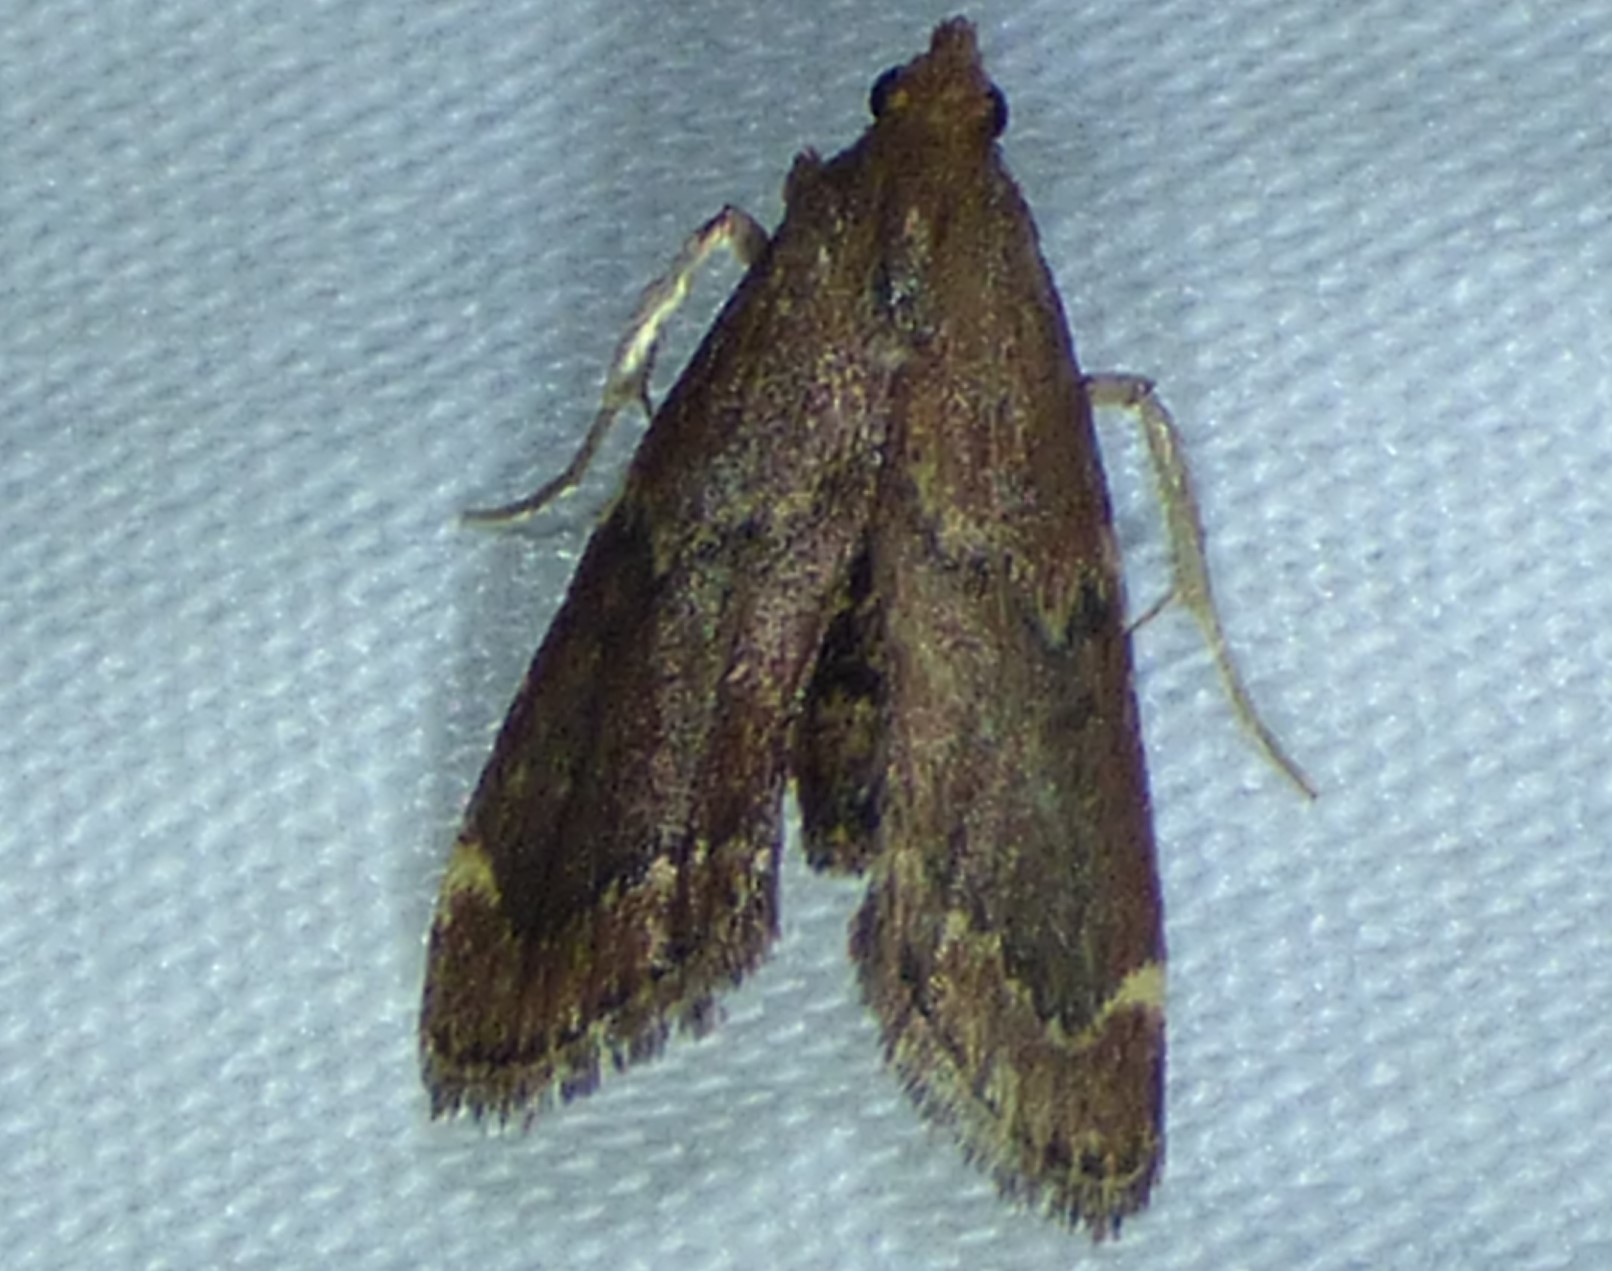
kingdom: Animalia
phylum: Arthropoda
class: Insecta
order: Lepidoptera
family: Pyralidae
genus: Hypsopygia
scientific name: Hypsopygia intermedialis
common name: Red-shawled moth
